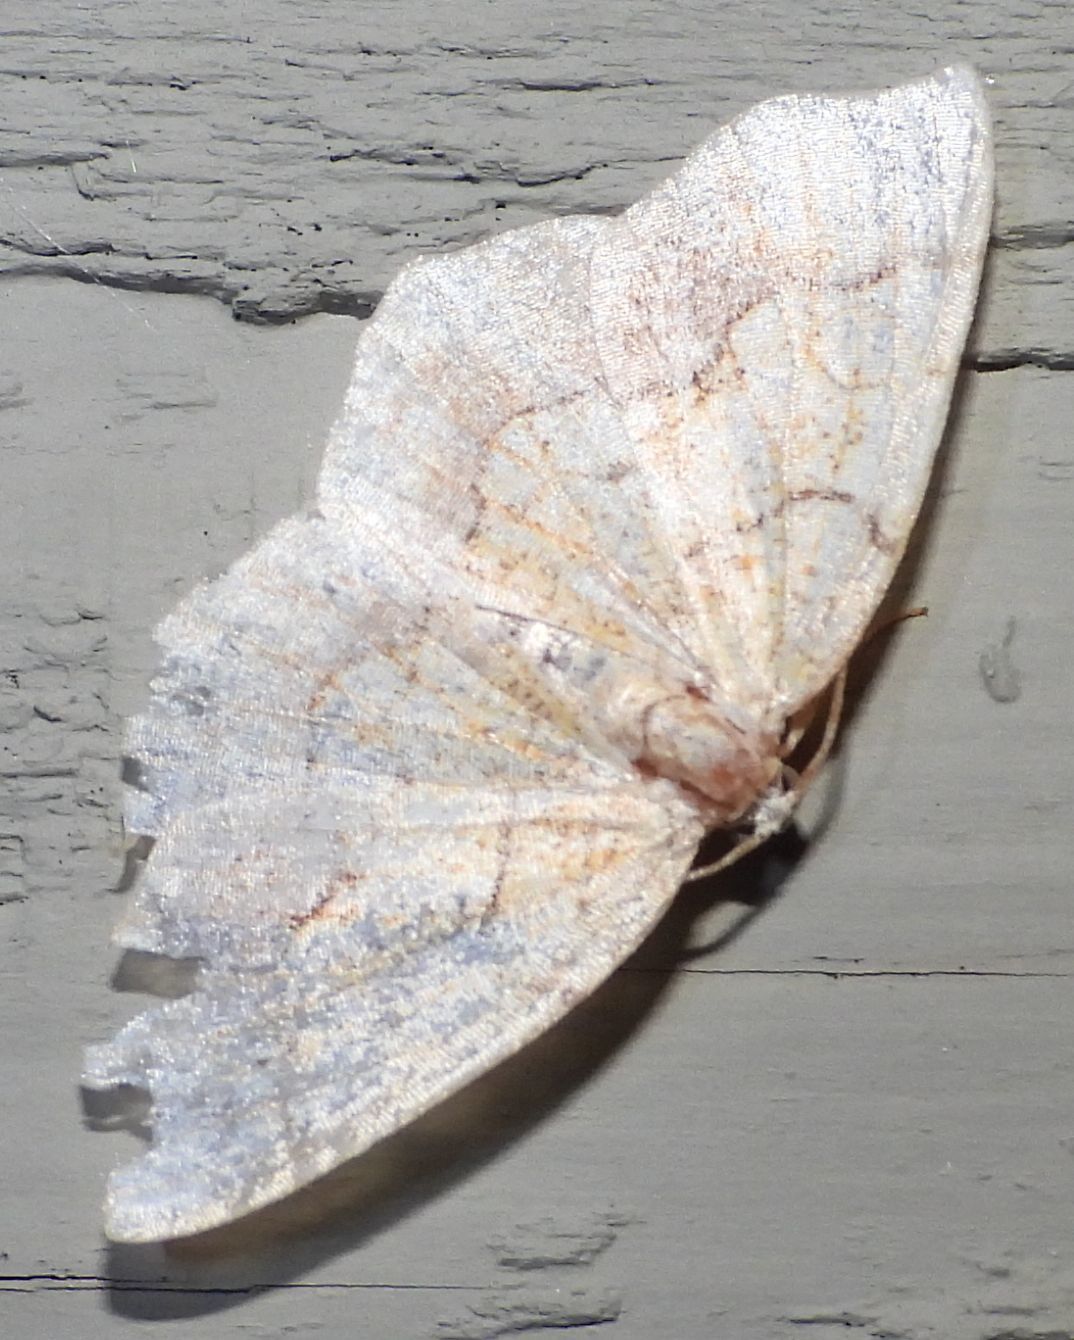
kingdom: Animalia
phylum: Arthropoda
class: Insecta
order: Lepidoptera
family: Geometridae
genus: Nematocampa
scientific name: Nematocampa resistaria
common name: Horned spanworm moth
